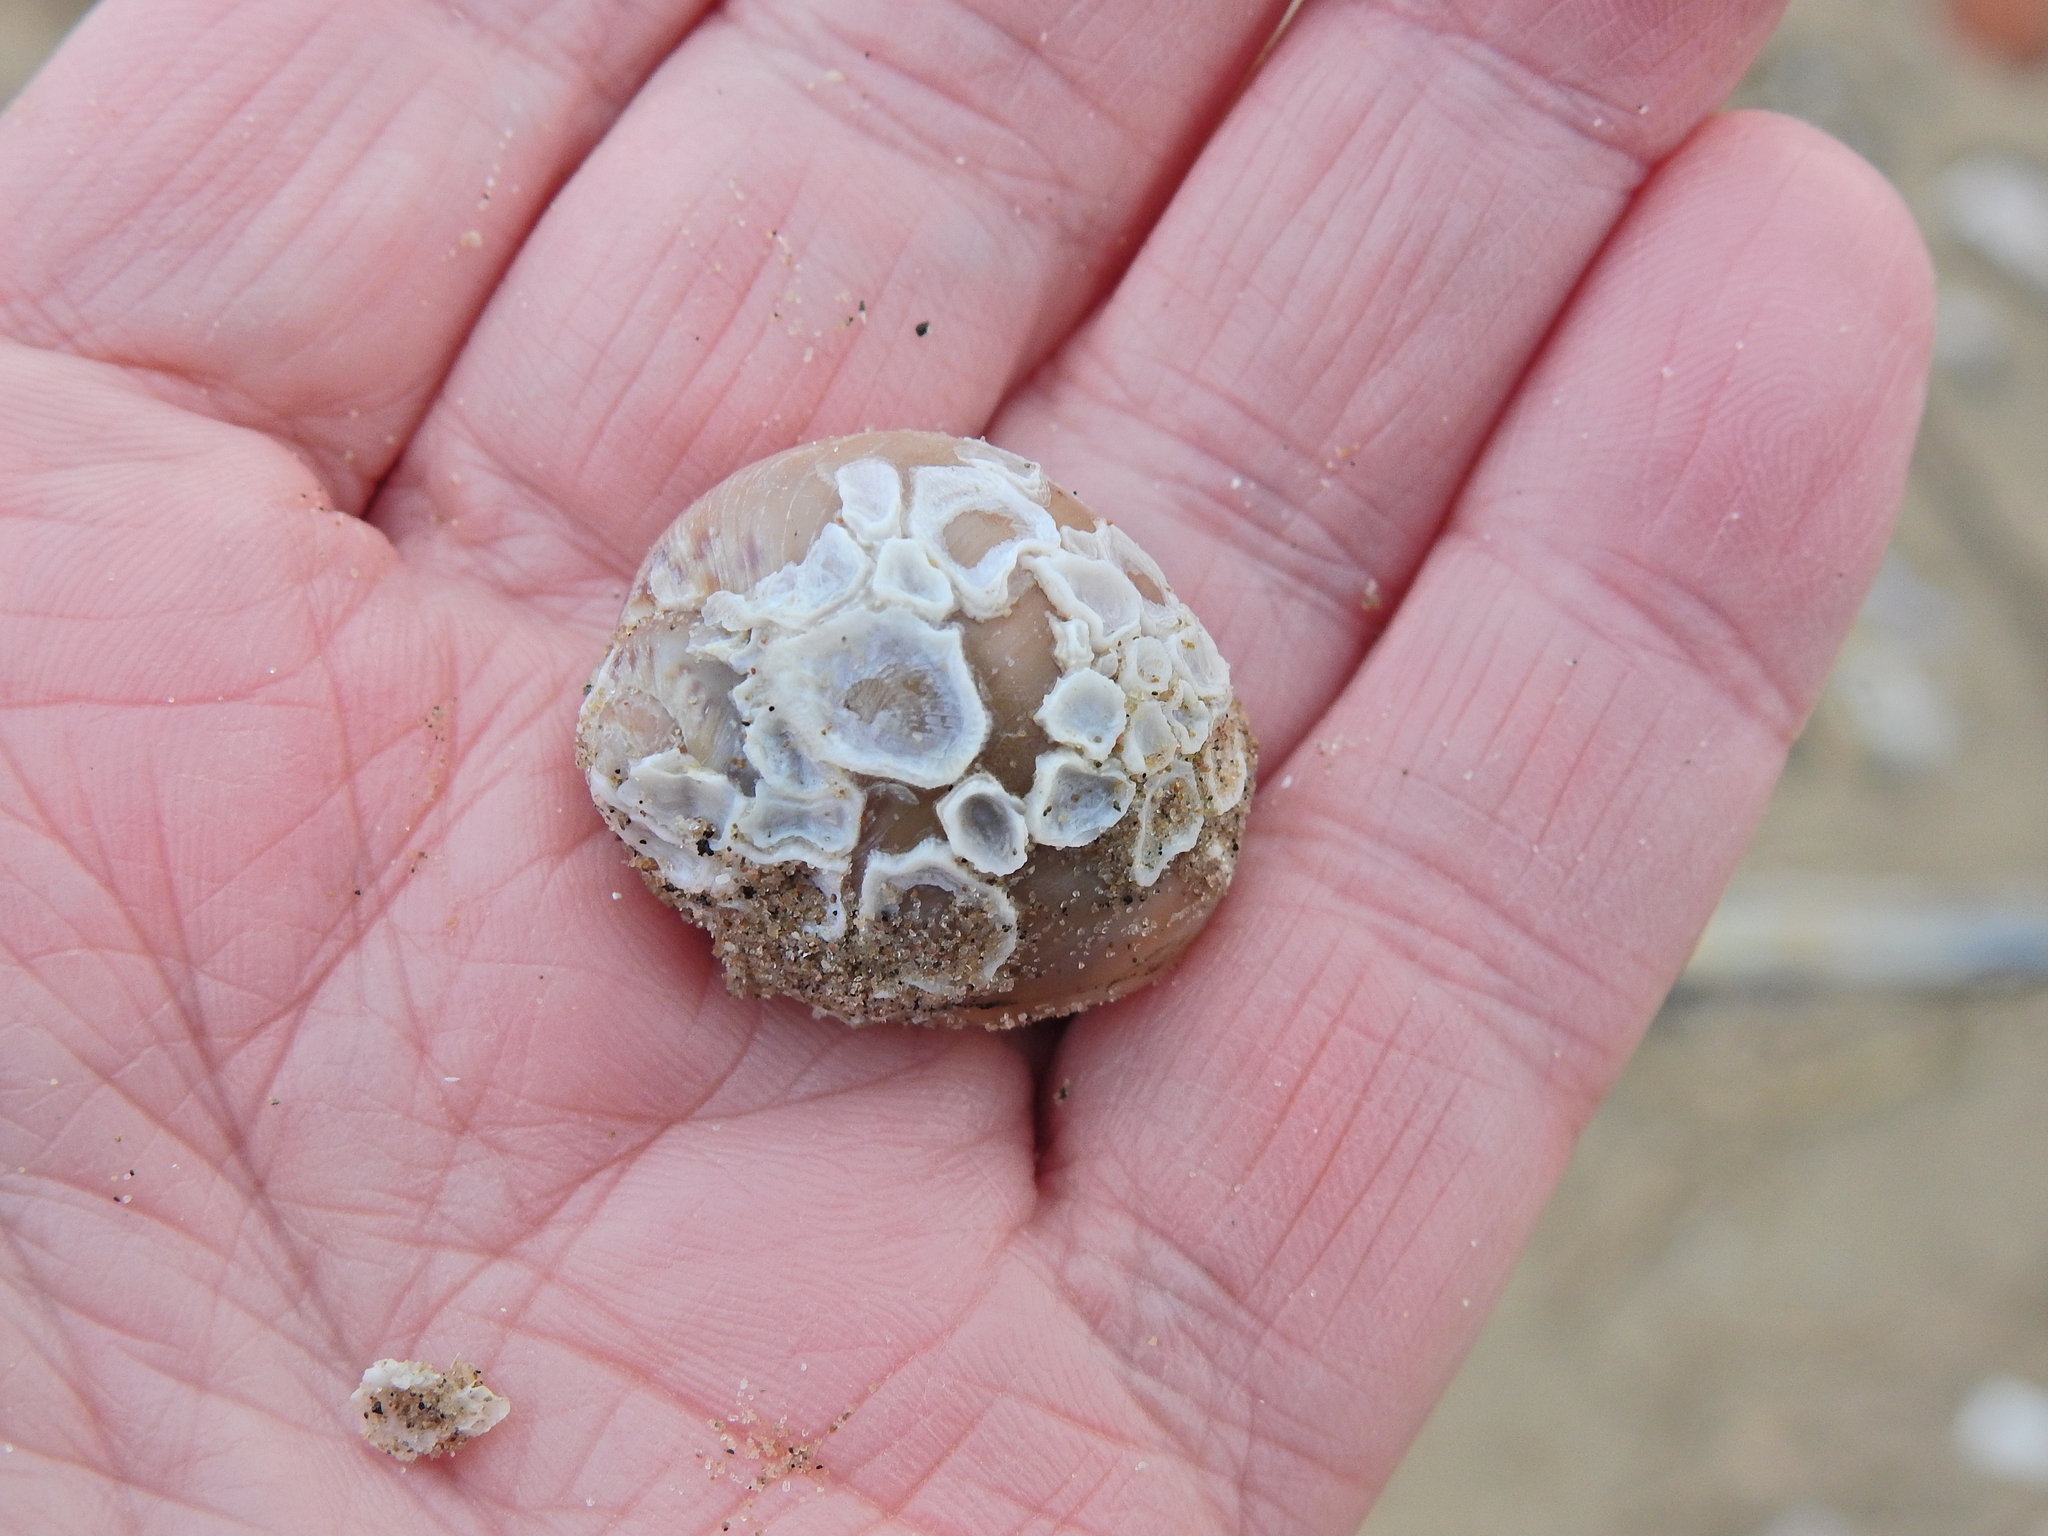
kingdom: Animalia
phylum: Mollusca
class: Gastropoda
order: Littorinimorpha
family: Naticidae
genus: Euspira
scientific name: Euspira catena
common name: Necklace shell
